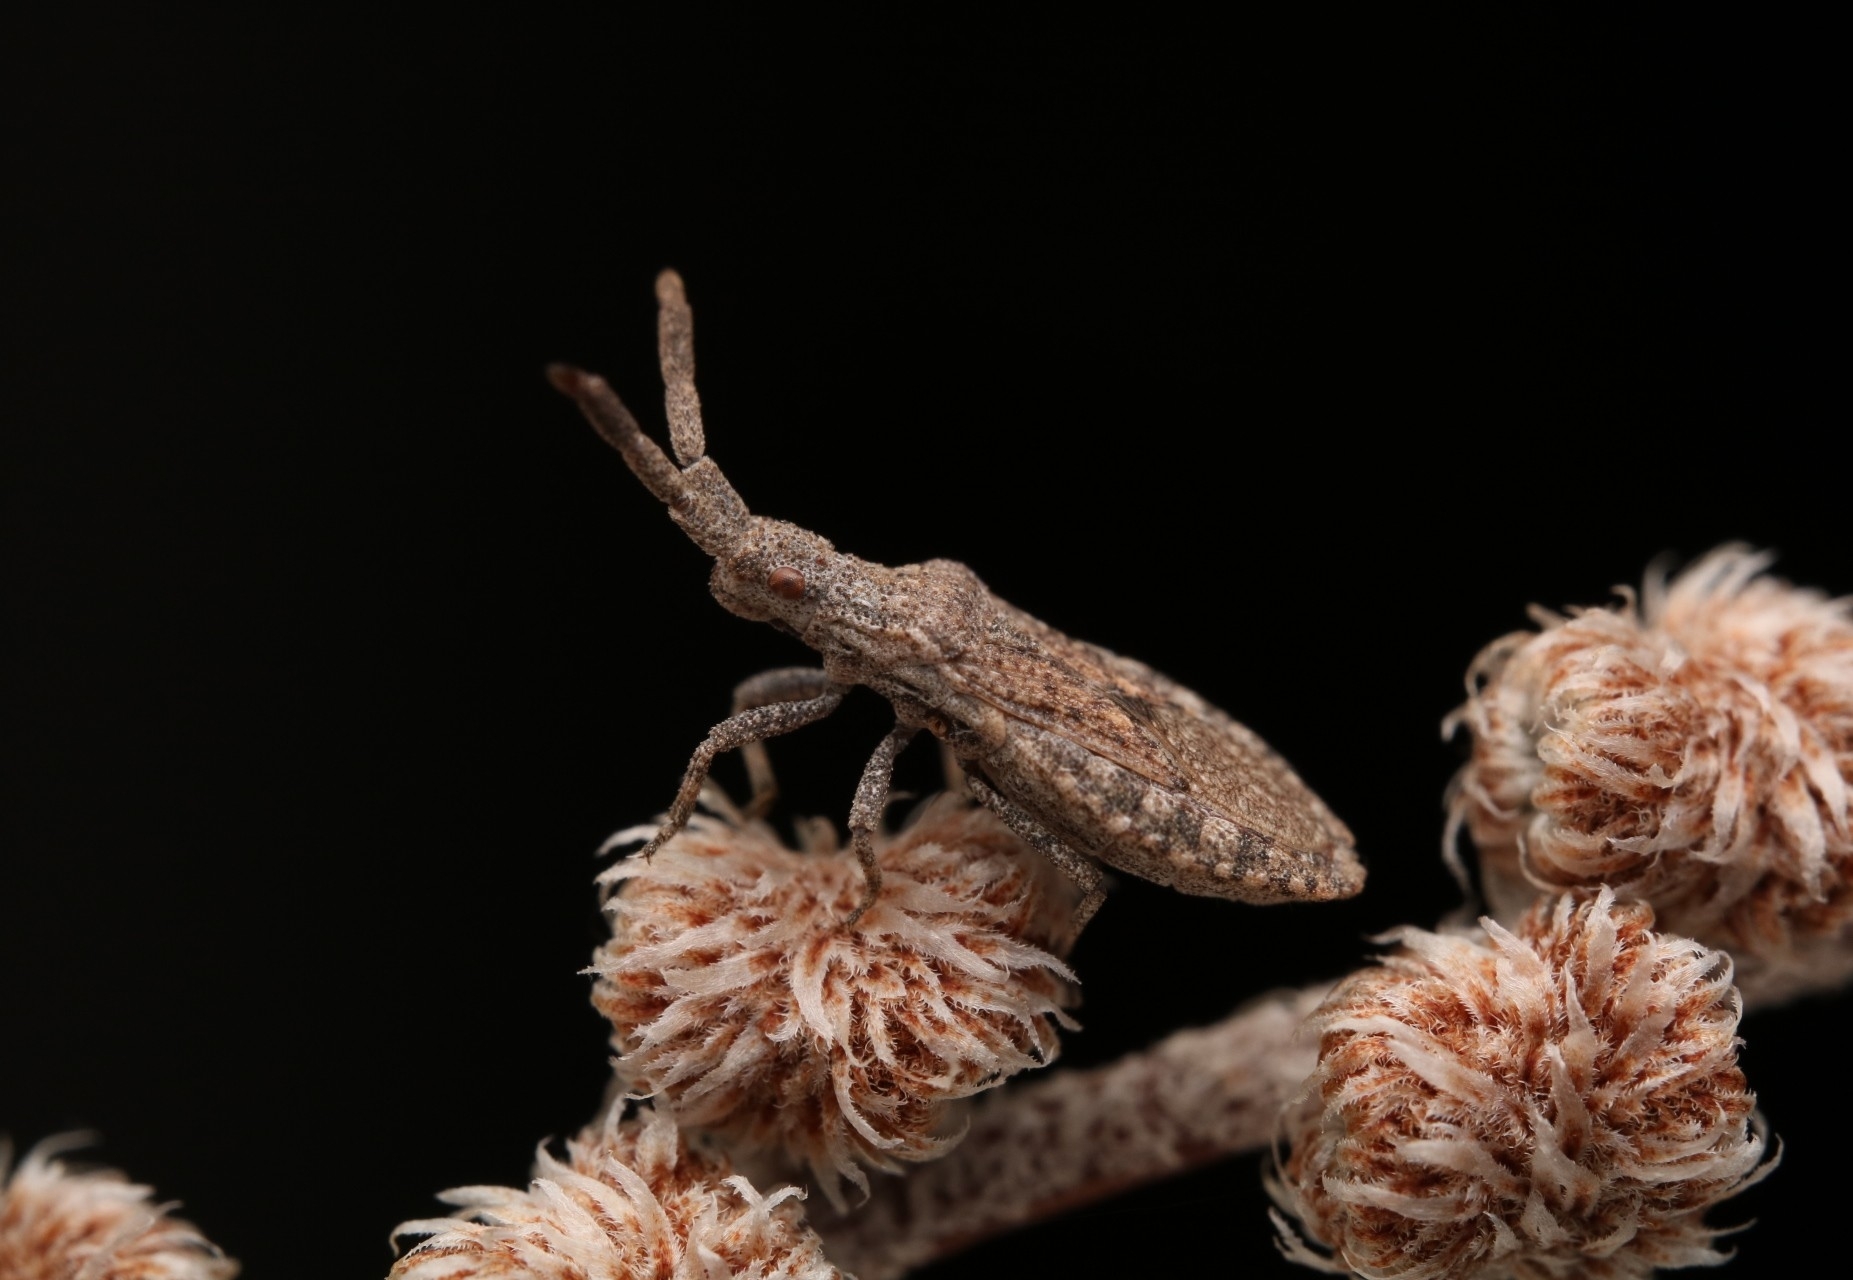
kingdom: Animalia
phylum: Arthropoda
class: Insecta
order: Hemiptera
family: Coreidae
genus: Scolopocerus
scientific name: Scolopocerus secundarius
